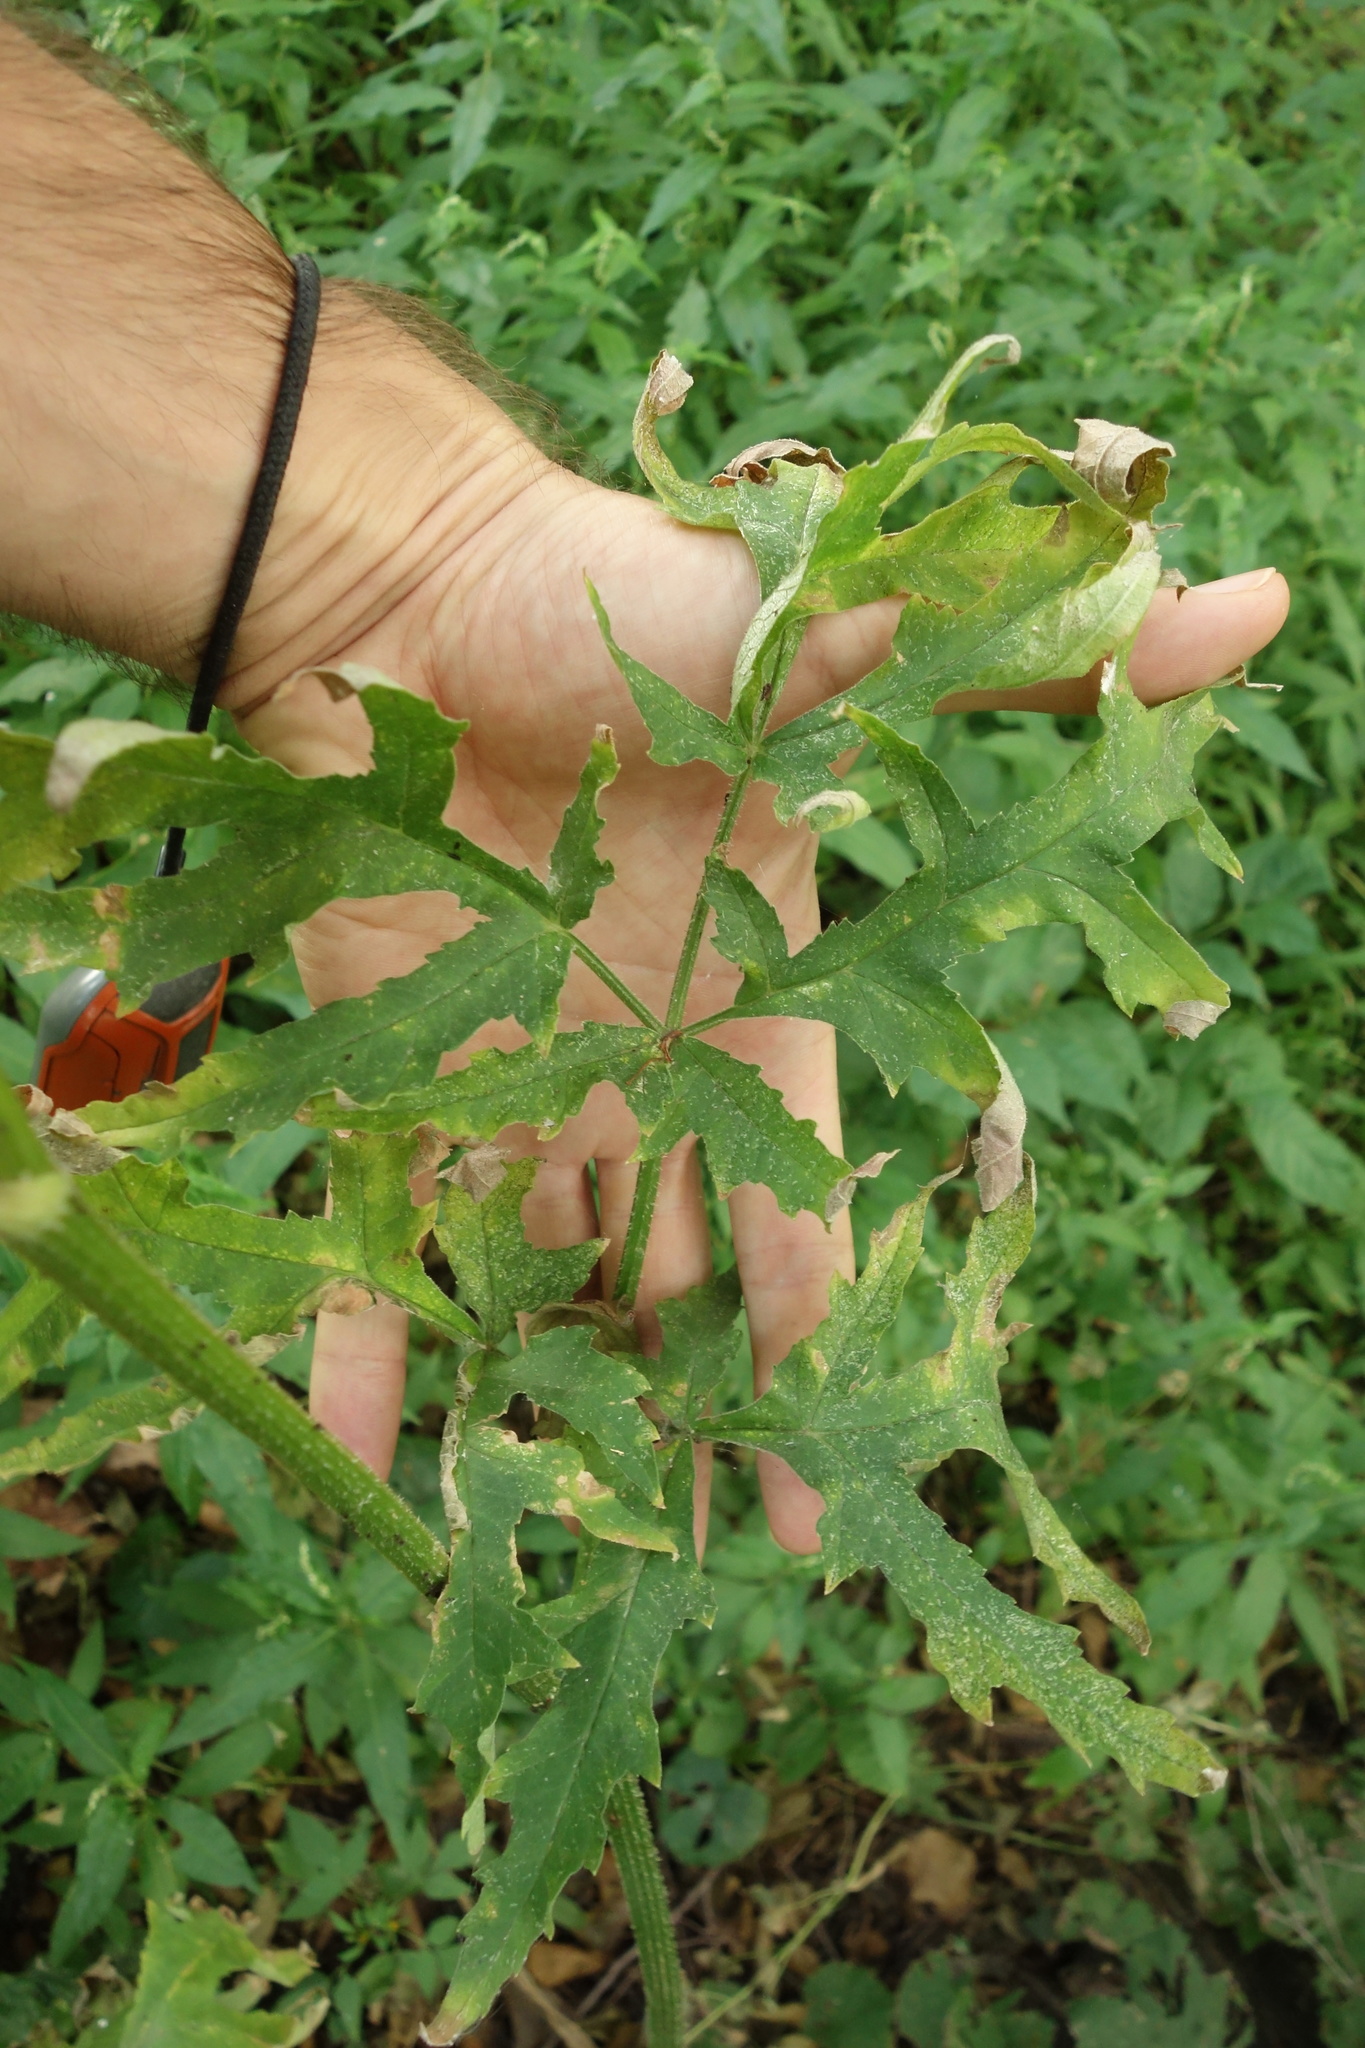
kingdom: Plantae
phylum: Tracheophyta
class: Magnoliopsida
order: Apiales
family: Apiaceae
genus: Heracleum
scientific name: Heracleum sphondylium
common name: Hogweed
